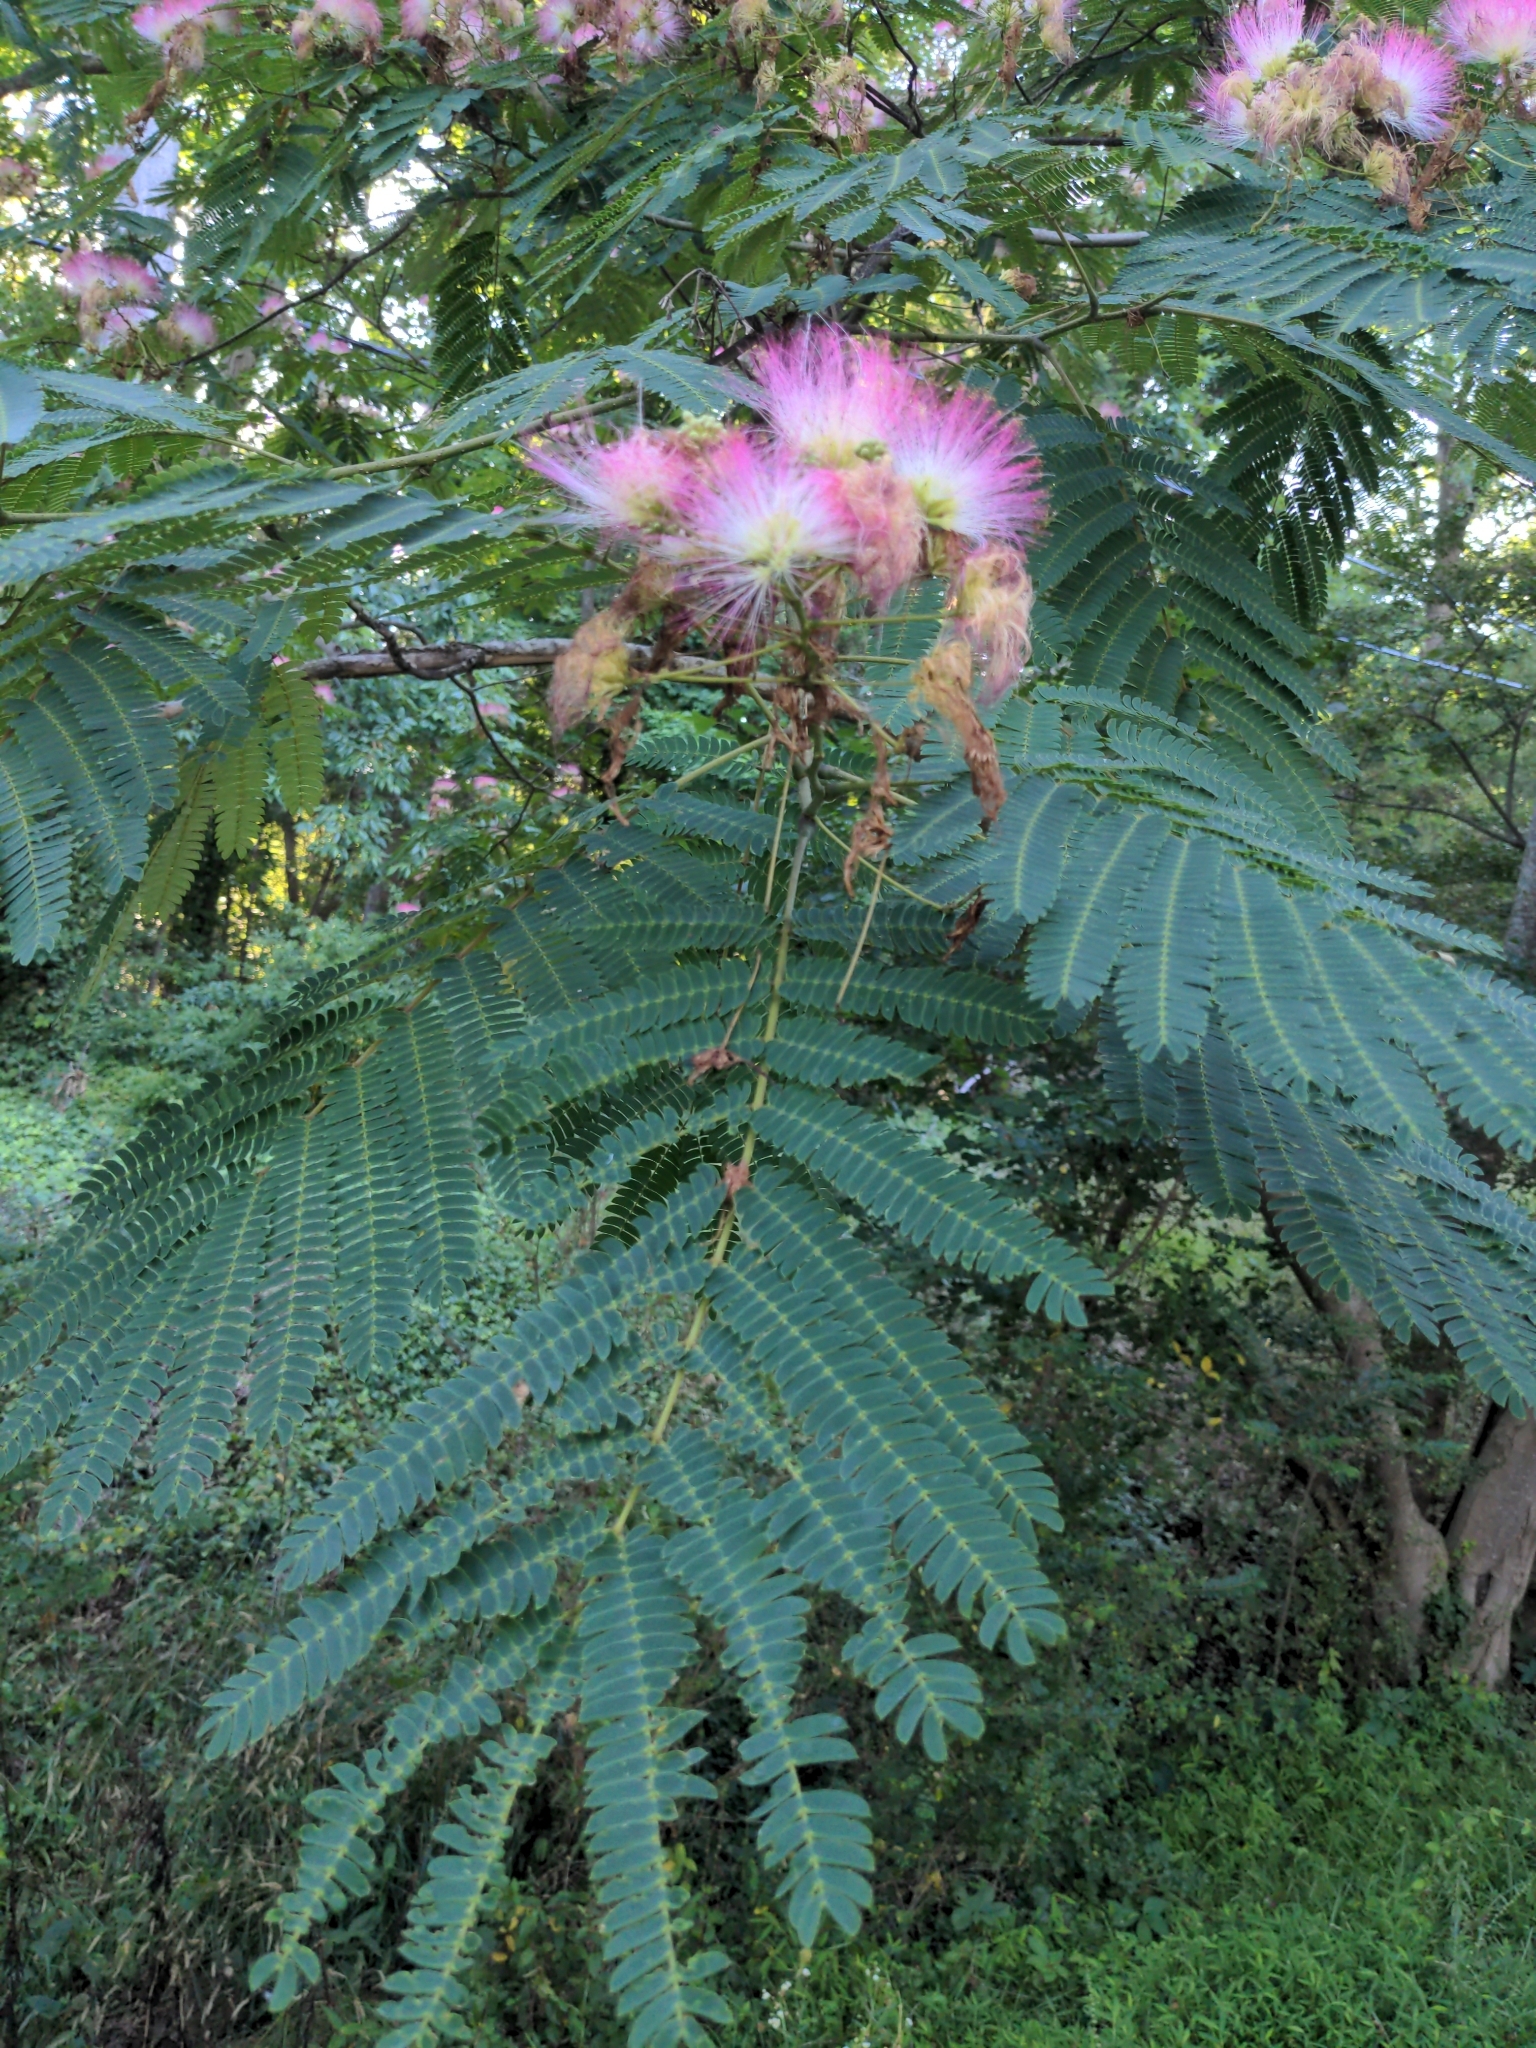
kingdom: Plantae
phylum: Tracheophyta
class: Magnoliopsida
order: Fabales
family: Fabaceae
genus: Albizia
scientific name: Albizia julibrissin
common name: Silktree
